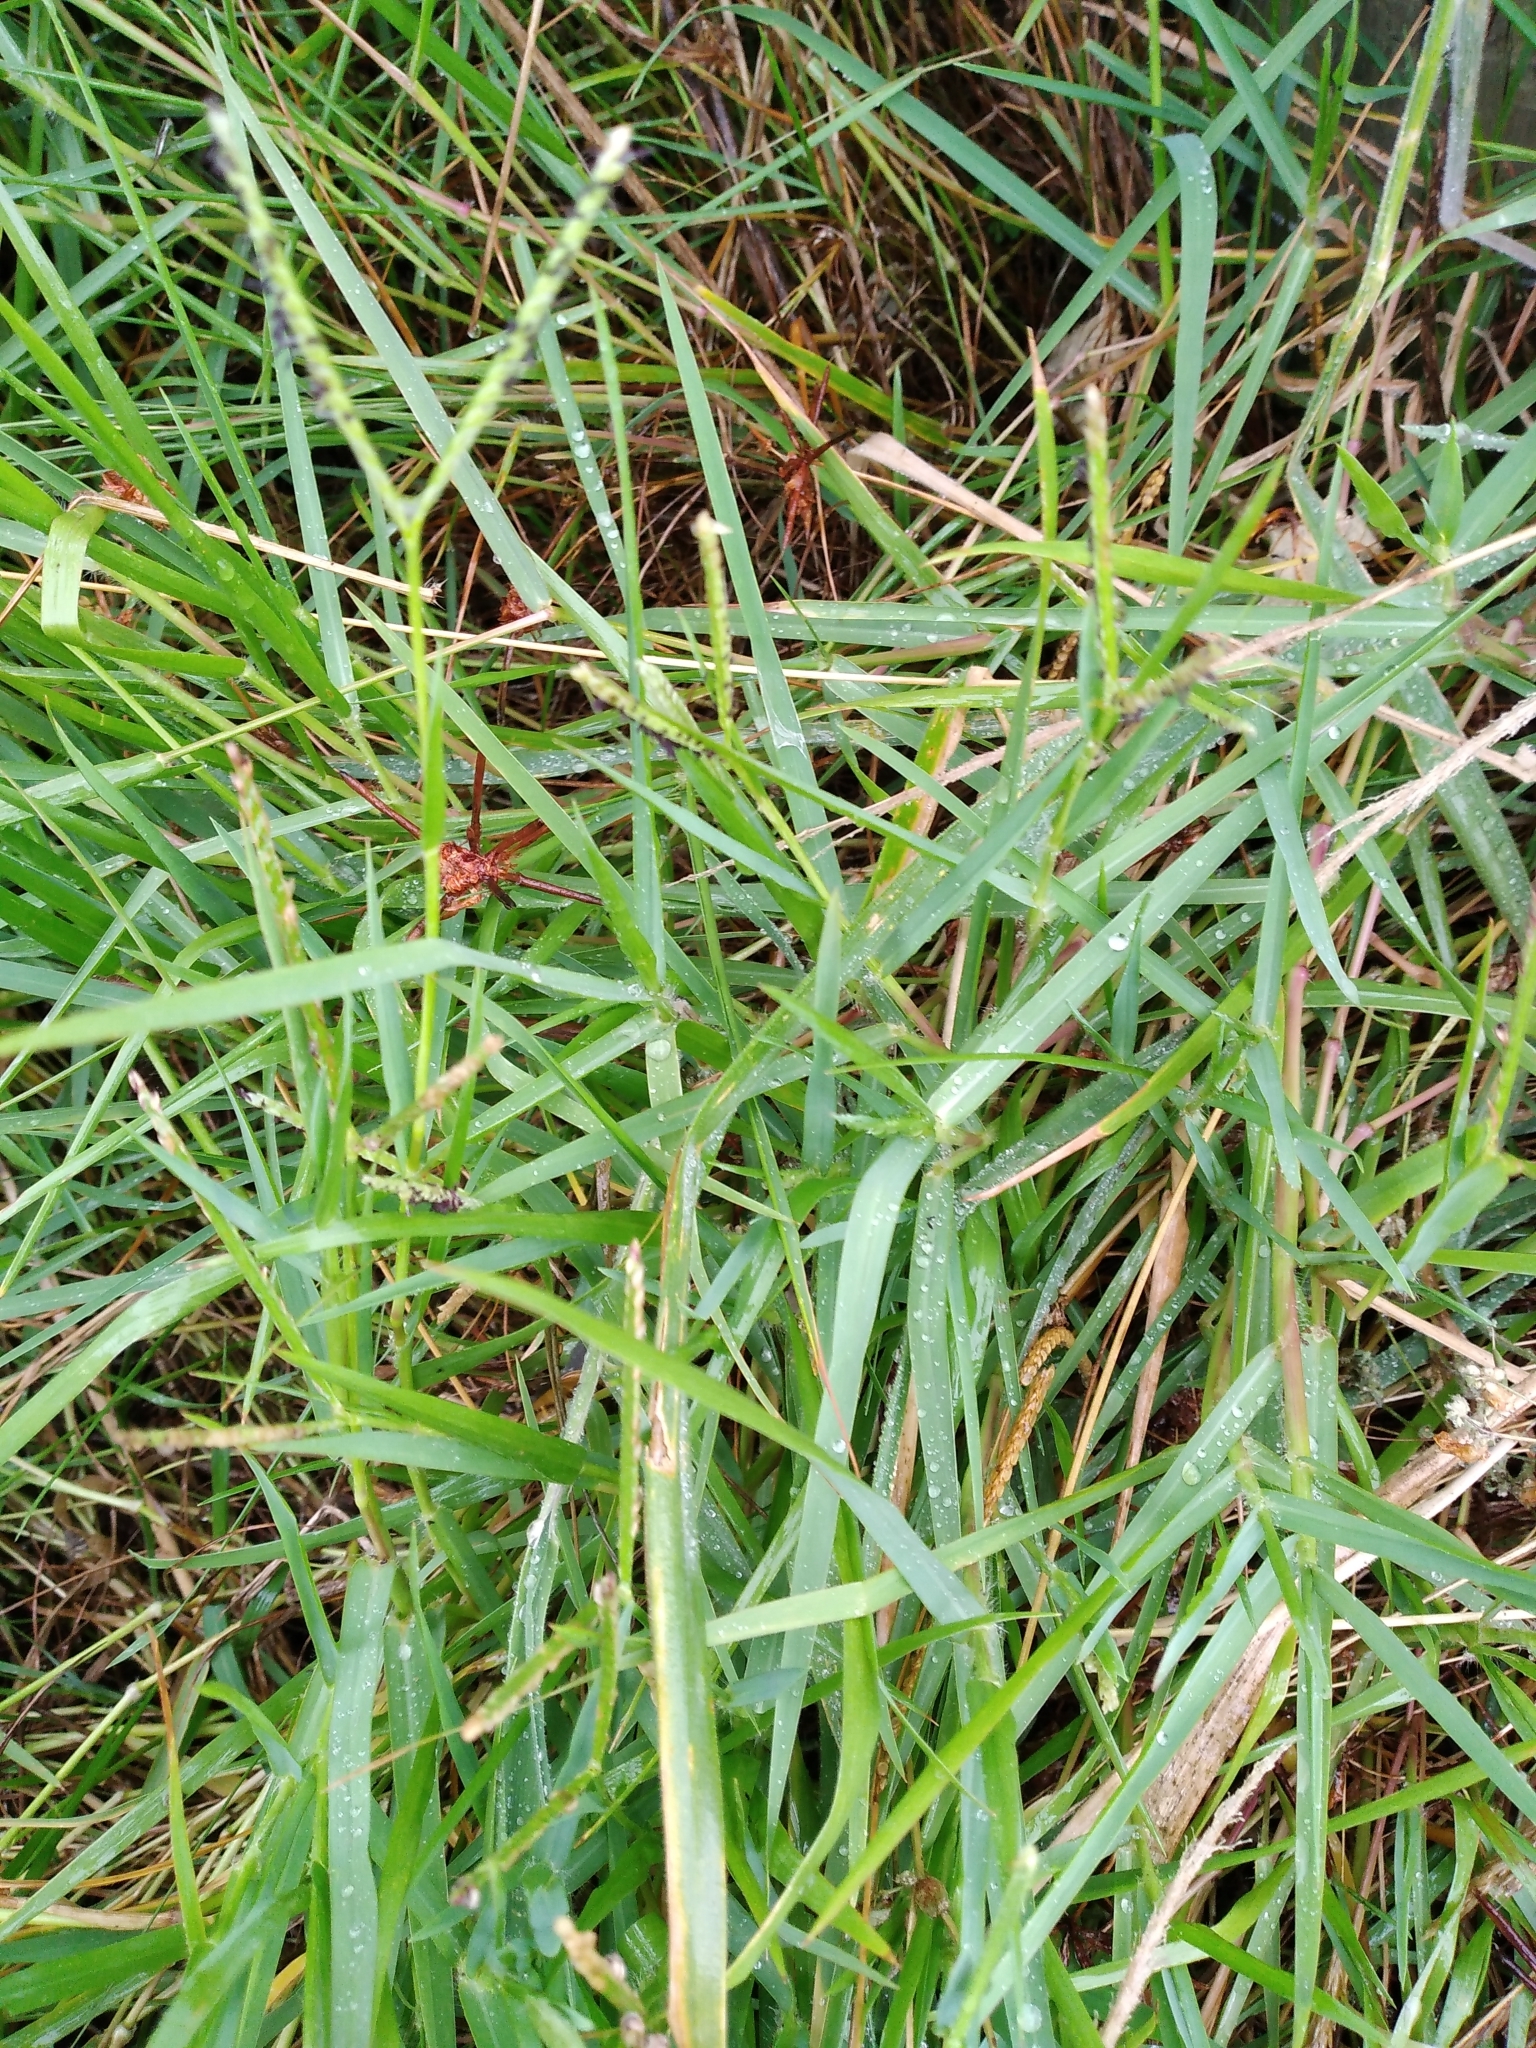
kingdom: Plantae
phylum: Tracheophyta
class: Liliopsida
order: Poales
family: Poaceae
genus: Paspalum
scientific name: Paspalum distichum
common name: Knotgrass
